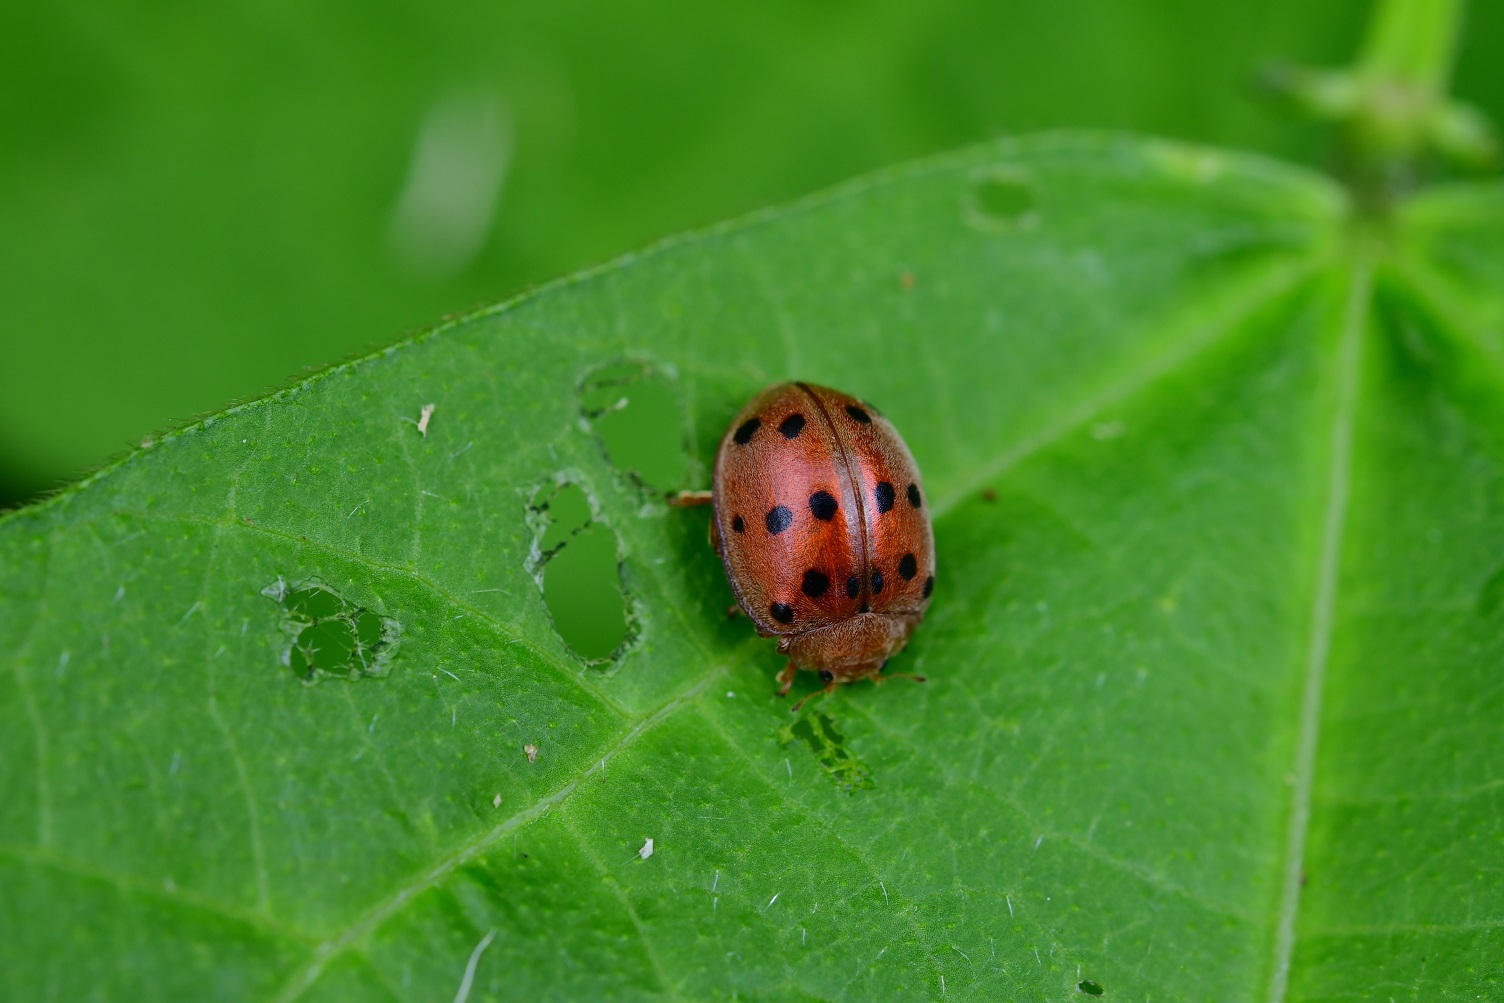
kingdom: Animalia
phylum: Arthropoda
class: Insecta
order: Coleoptera
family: Coccinellidae
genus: Epilachna
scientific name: Epilachna varivestis
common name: Ladybird beetle
